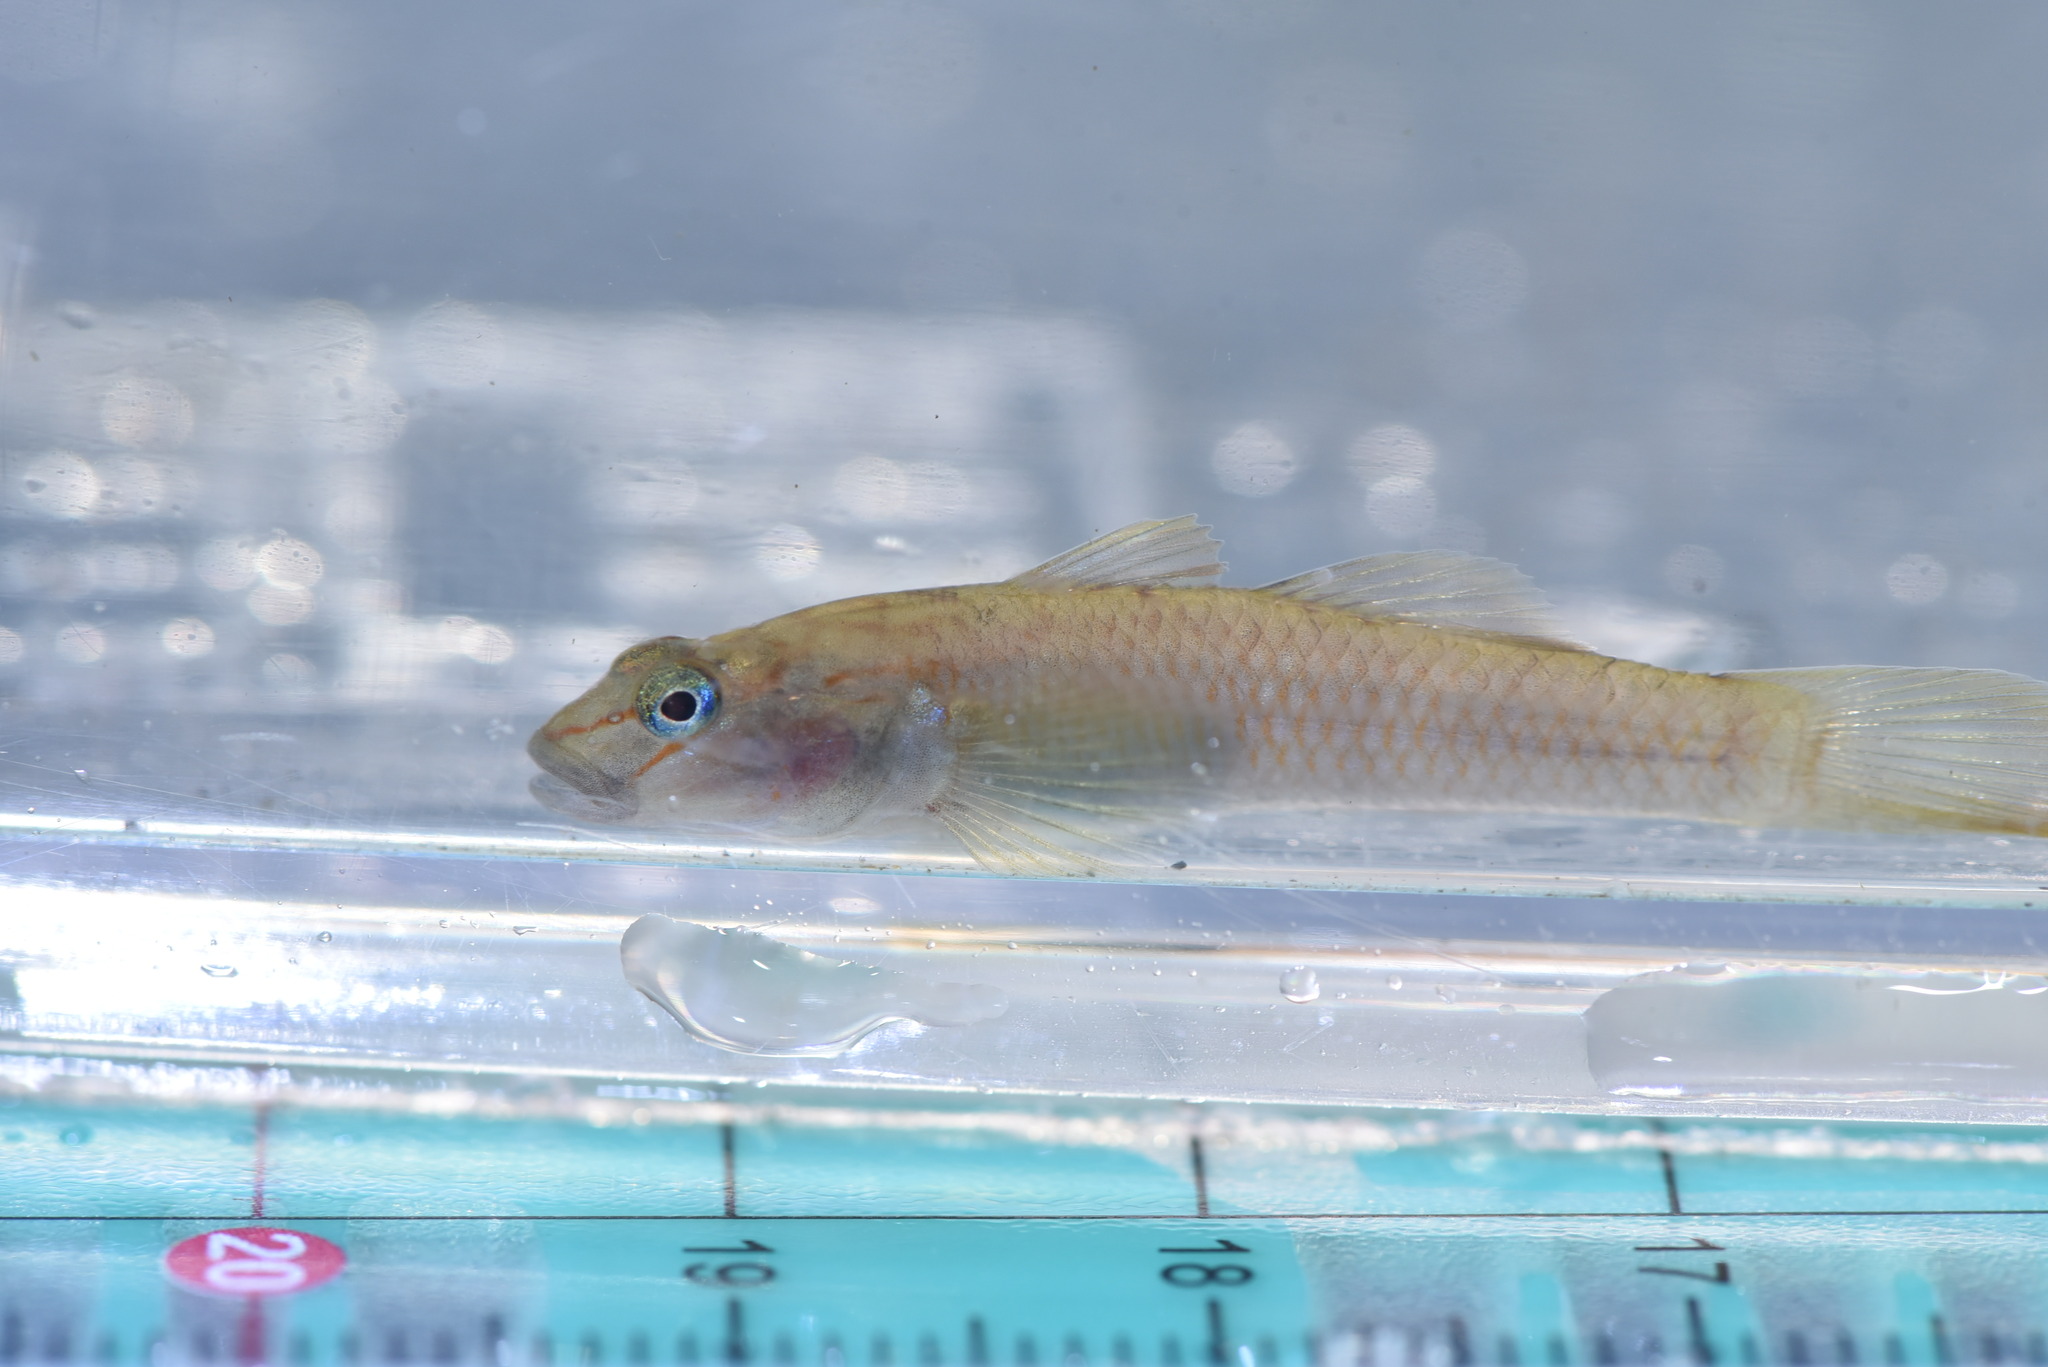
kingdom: Animalia
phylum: Chordata
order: Perciformes
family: Gobiidae
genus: Rhinogobius
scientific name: Rhinogobius candidianus
